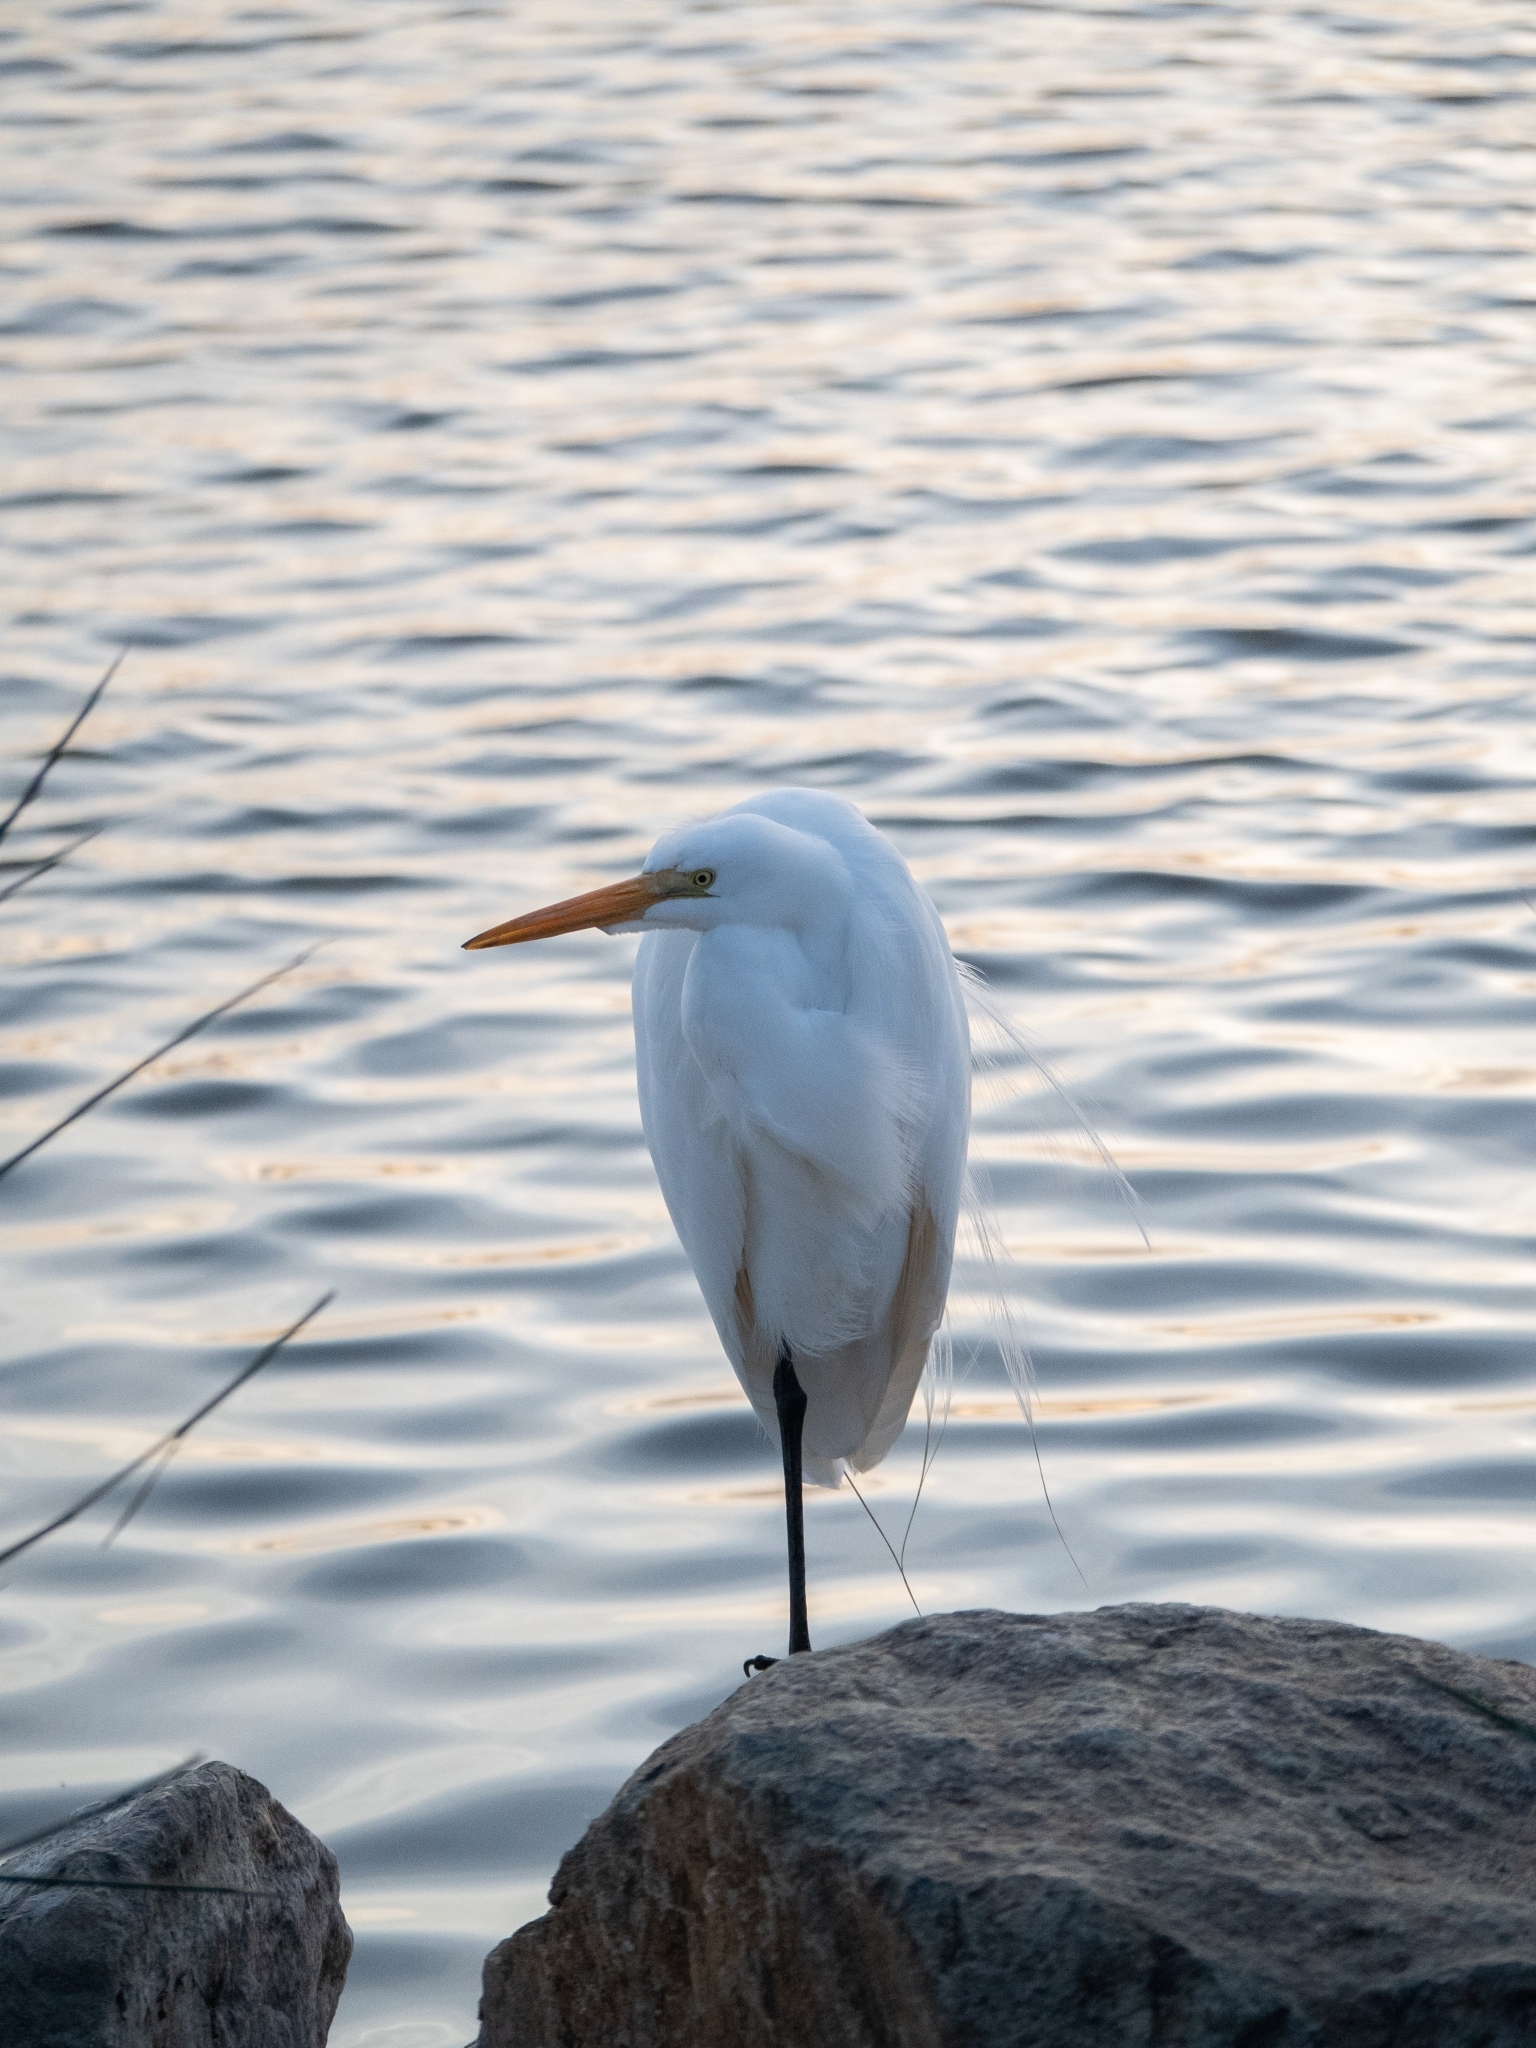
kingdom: Animalia
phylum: Chordata
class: Aves
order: Pelecaniformes
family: Ardeidae
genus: Ardea
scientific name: Ardea alba
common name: Great egret
